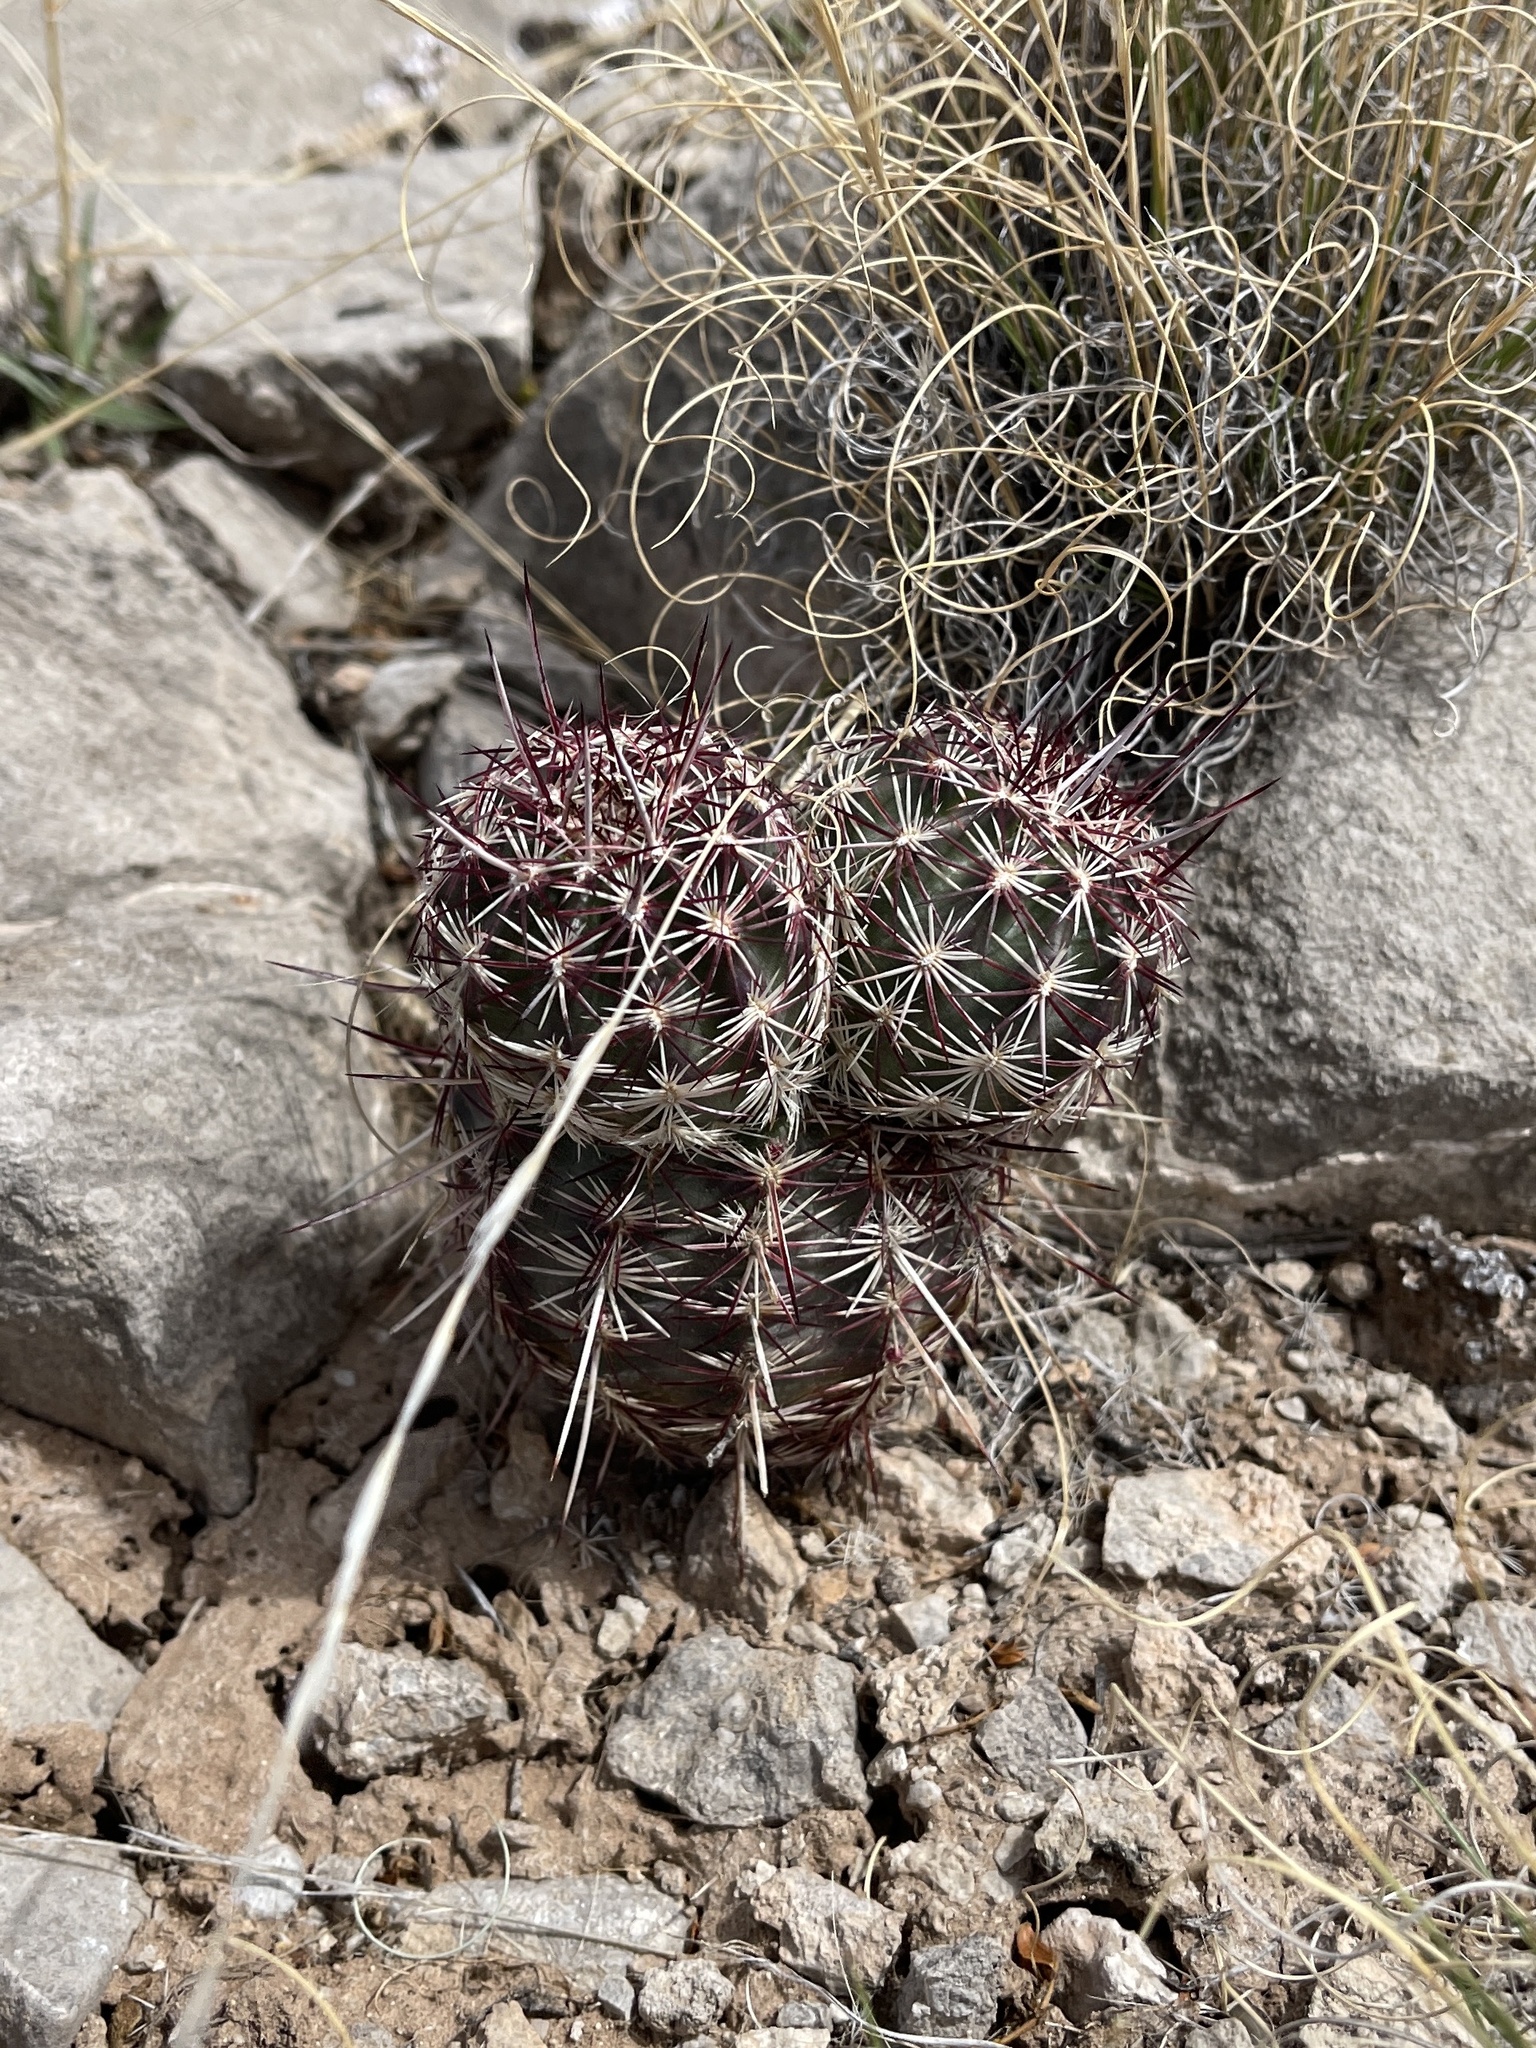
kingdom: Plantae
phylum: Tracheophyta
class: Magnoliopsida
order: Caryophyllales
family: Cactaceae
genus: Echinocereus
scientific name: Echinocereus viridiflorus
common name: Nylon hedgehog cactus
